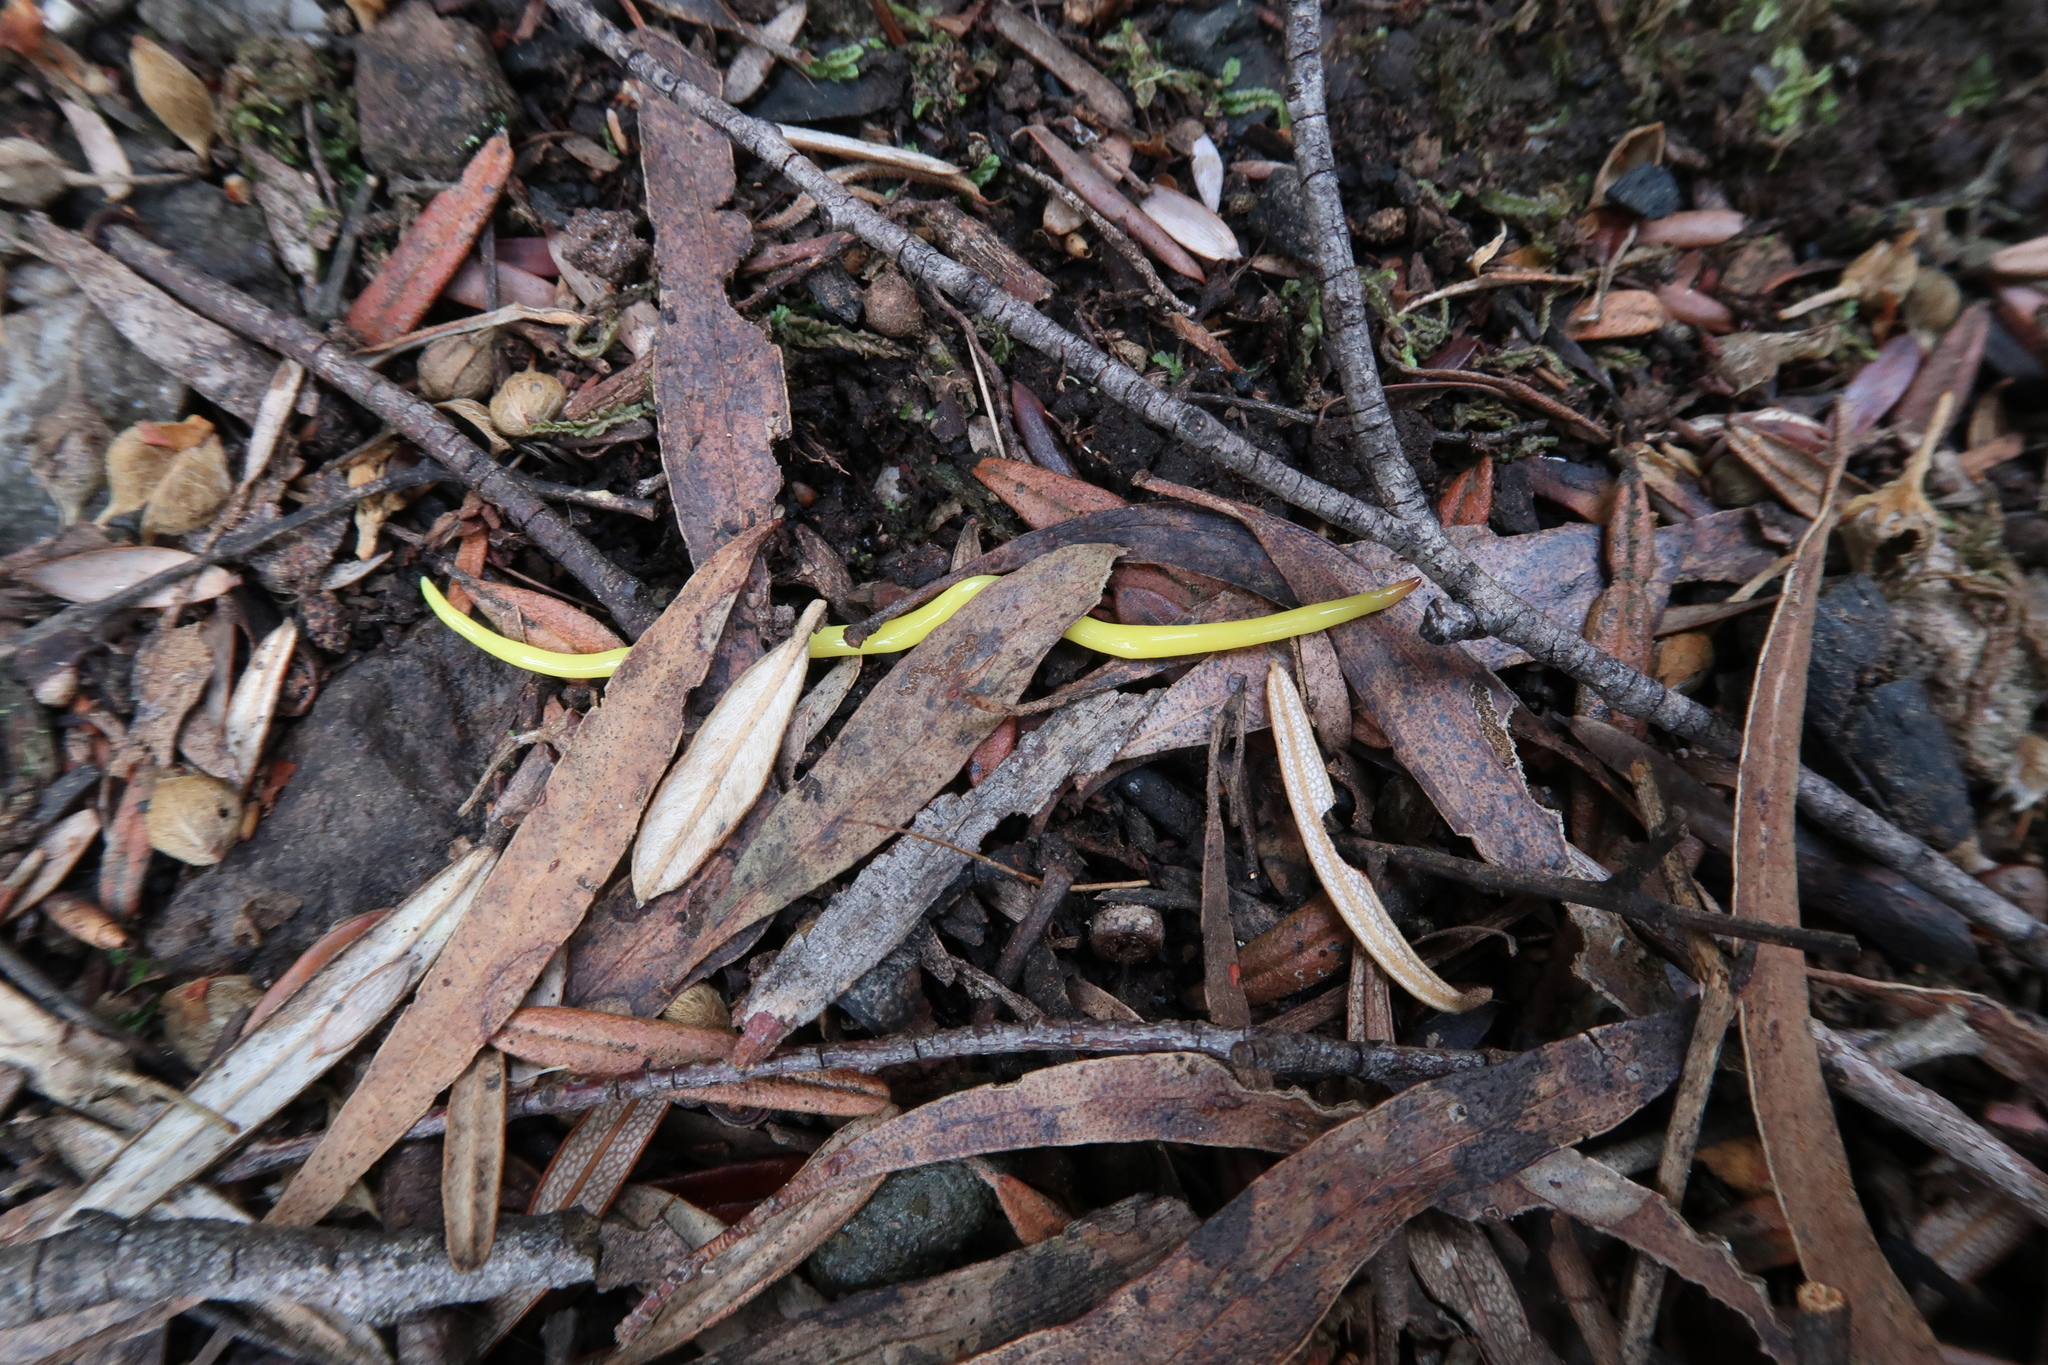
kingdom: Animalia
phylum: Platyhelminthes
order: Tricladida
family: Geoplanidae
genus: Fletchamia
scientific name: Fletchamia sugdeni
